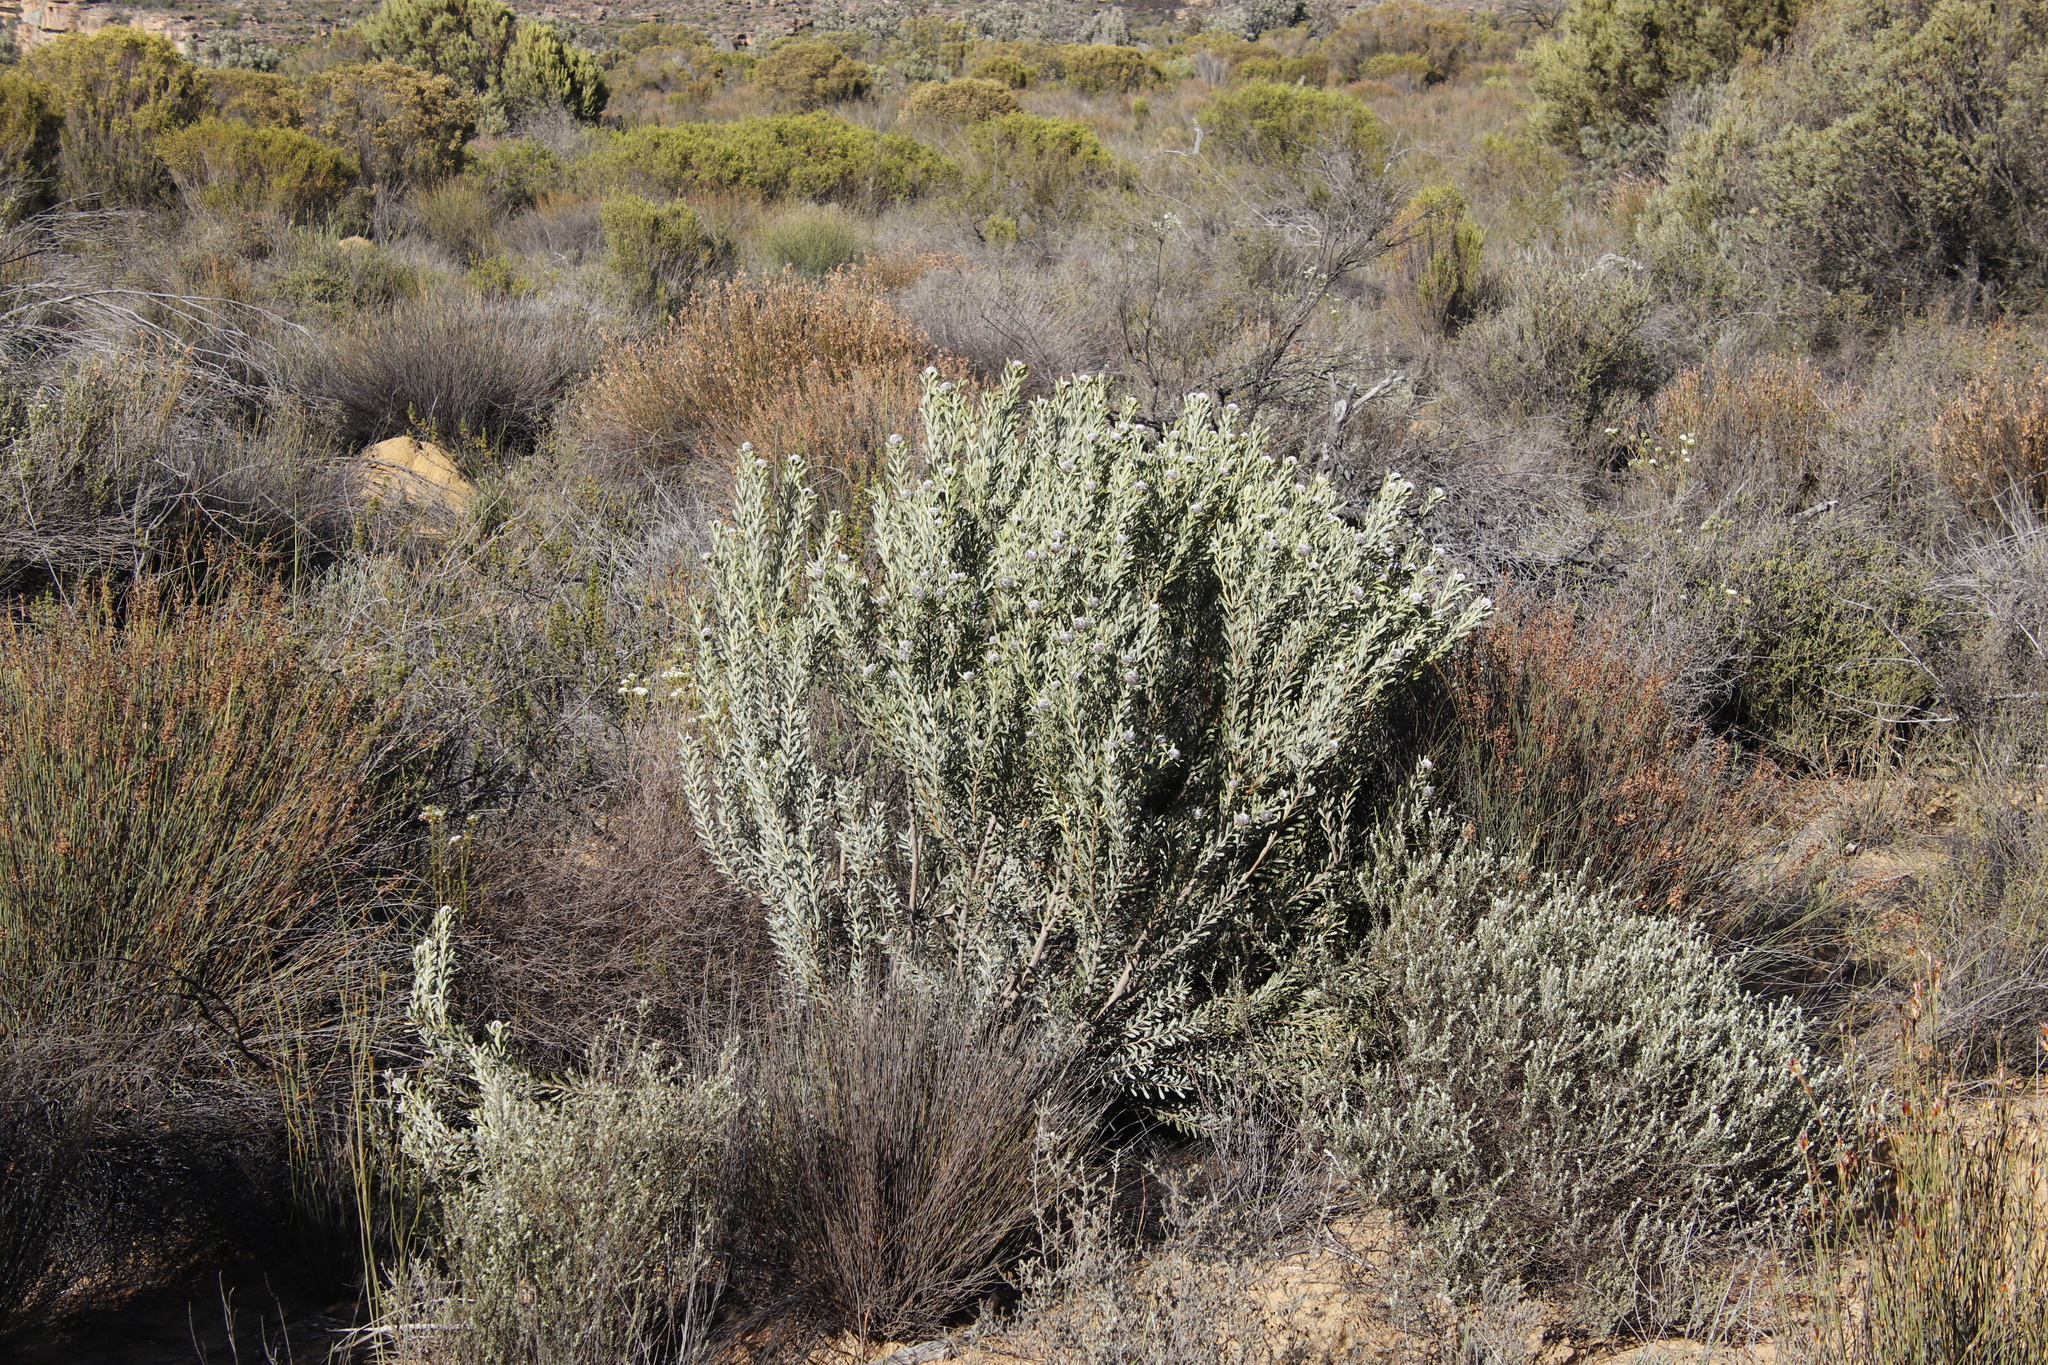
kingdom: Plantae
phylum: Tracheophyta
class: Magnoliopsida
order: Proteales
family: Proteaceae
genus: Leucadendron
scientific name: Leucadendron pubescens
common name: Grey conebush
